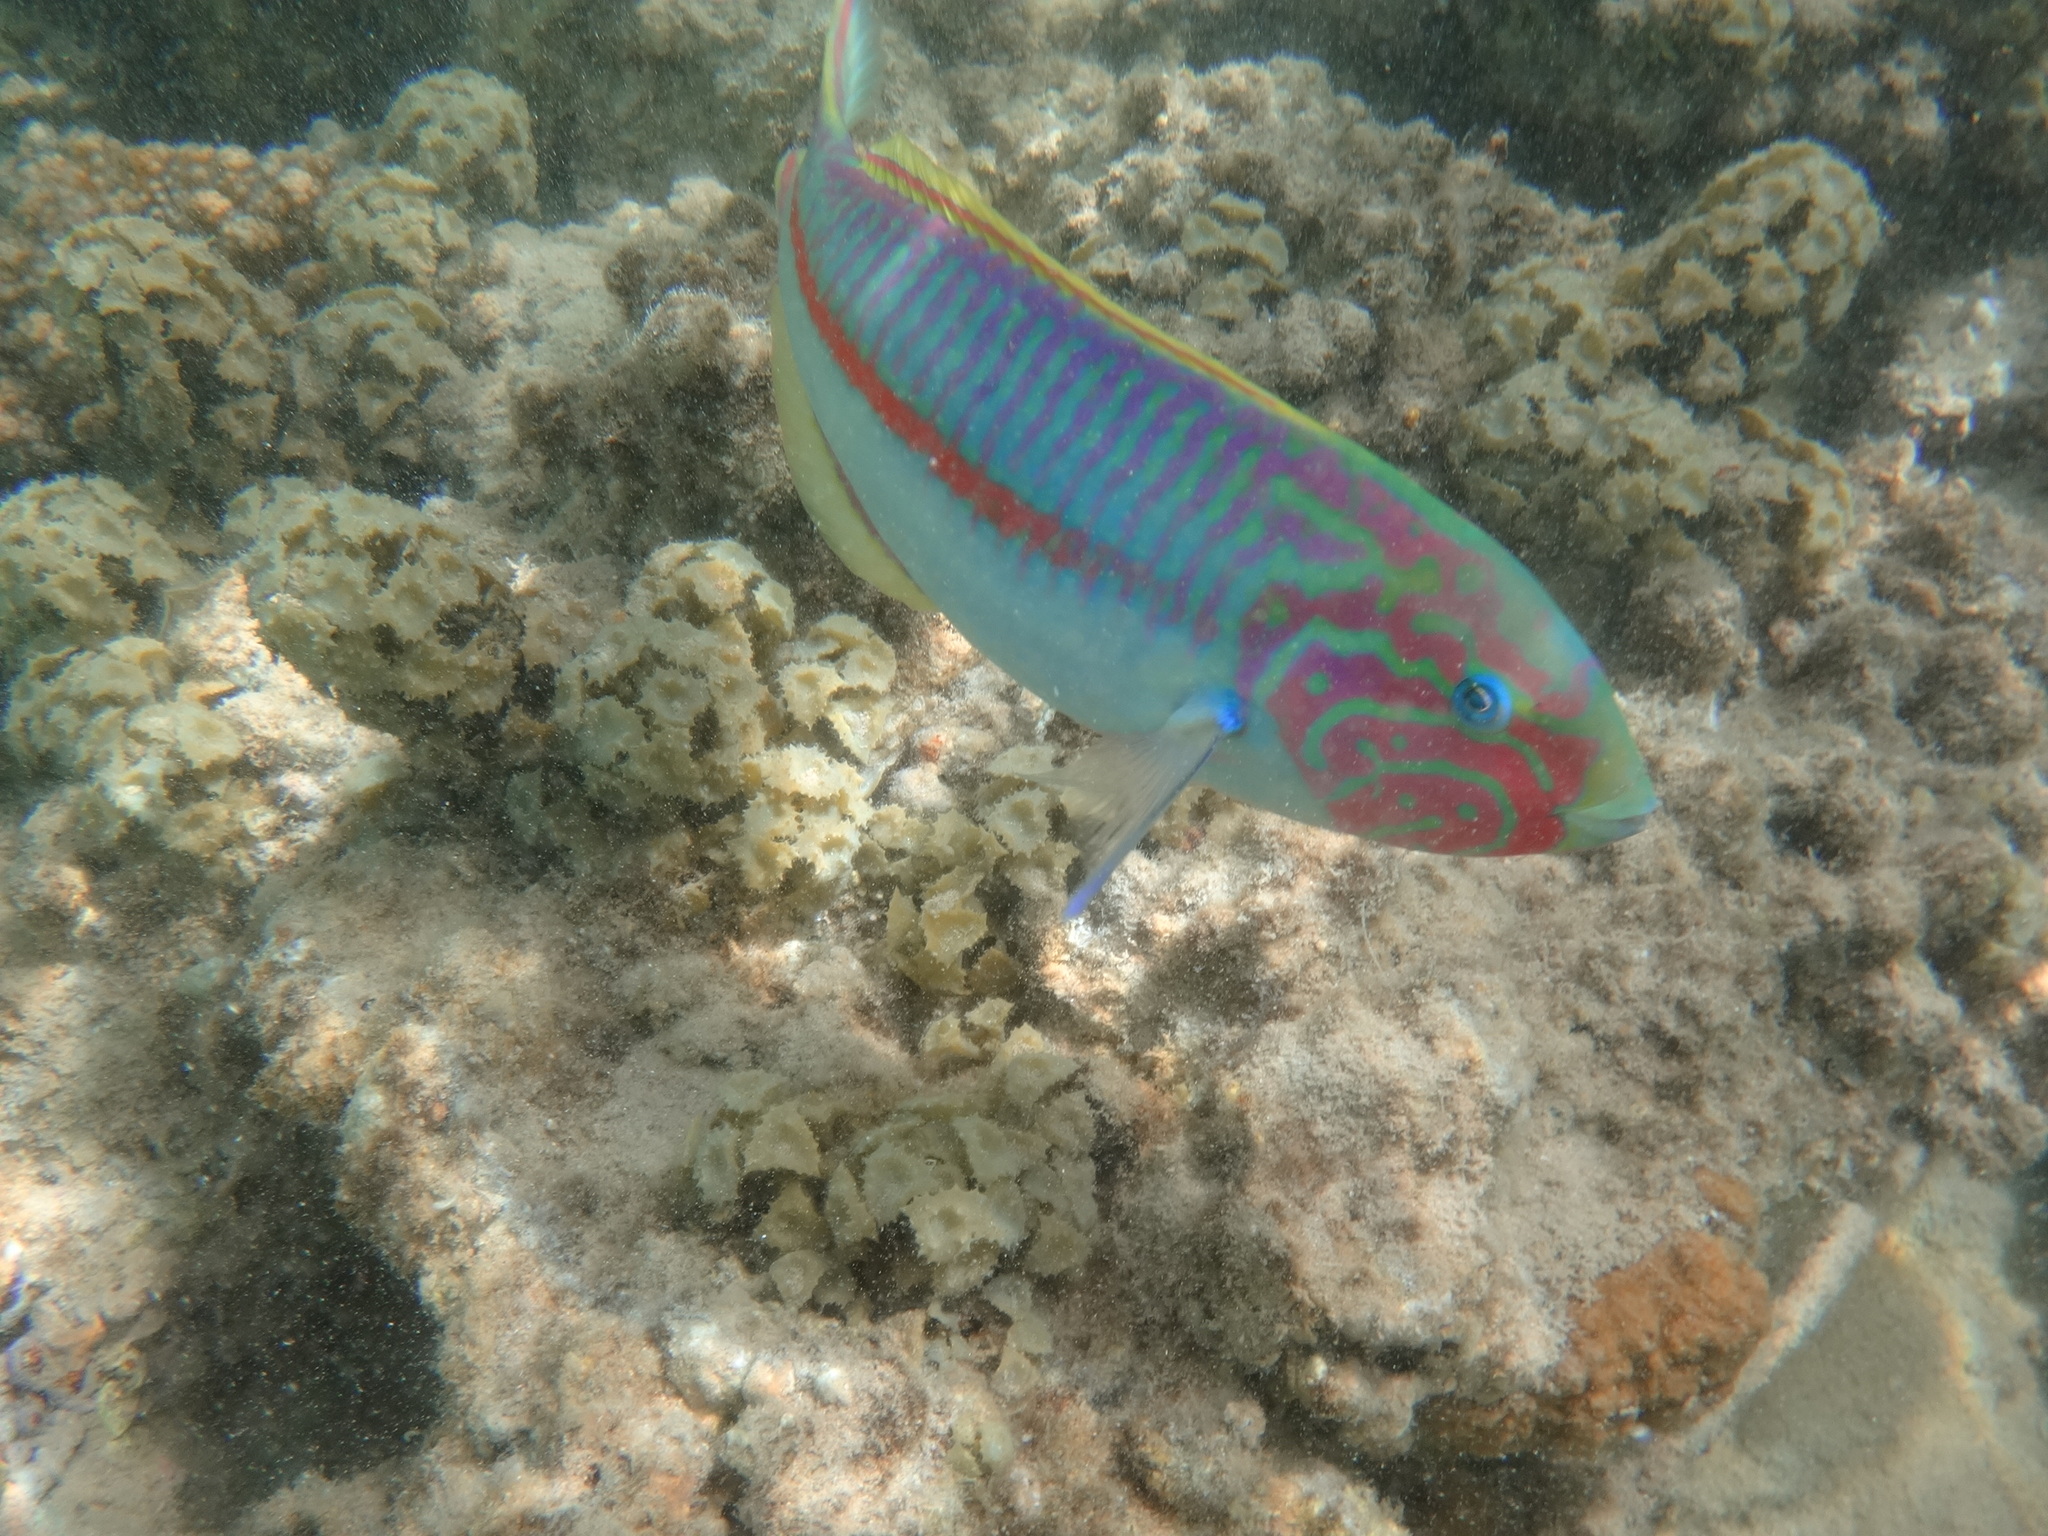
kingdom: Animalia
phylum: Chordata
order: Perciformes
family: Labridae
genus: Thalassoma
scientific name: Thalassoma rueppellii
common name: Klunzinger's wrasse
